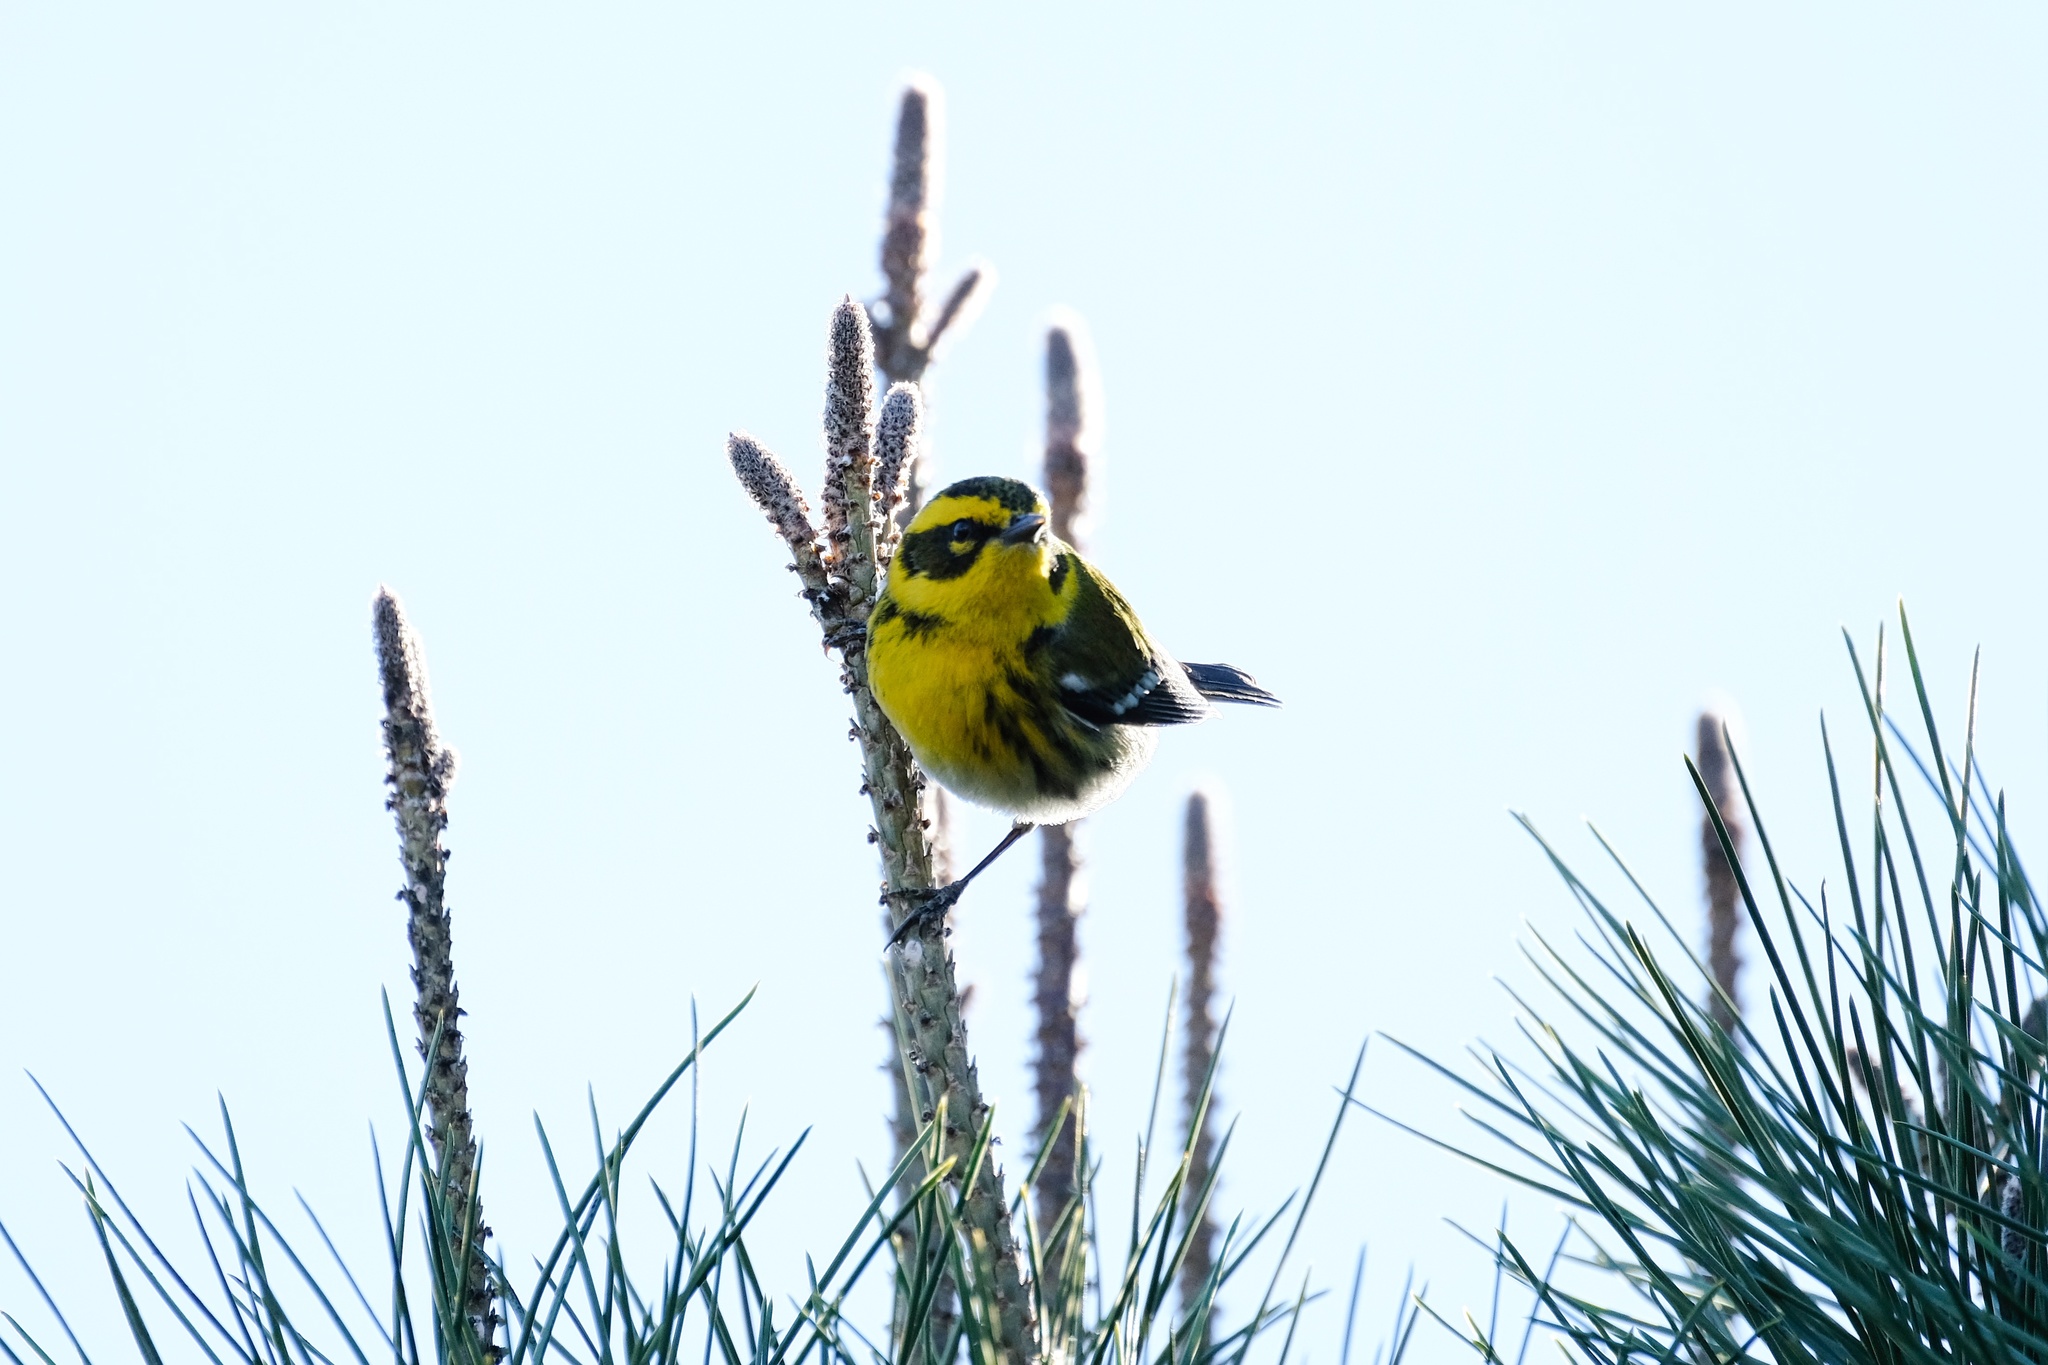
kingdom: Animalia
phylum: Chordata
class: Aves
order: Passeriformes
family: Parulidae
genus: Setophaga
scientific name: Setophaga townsendi
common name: Townsend's warbler
